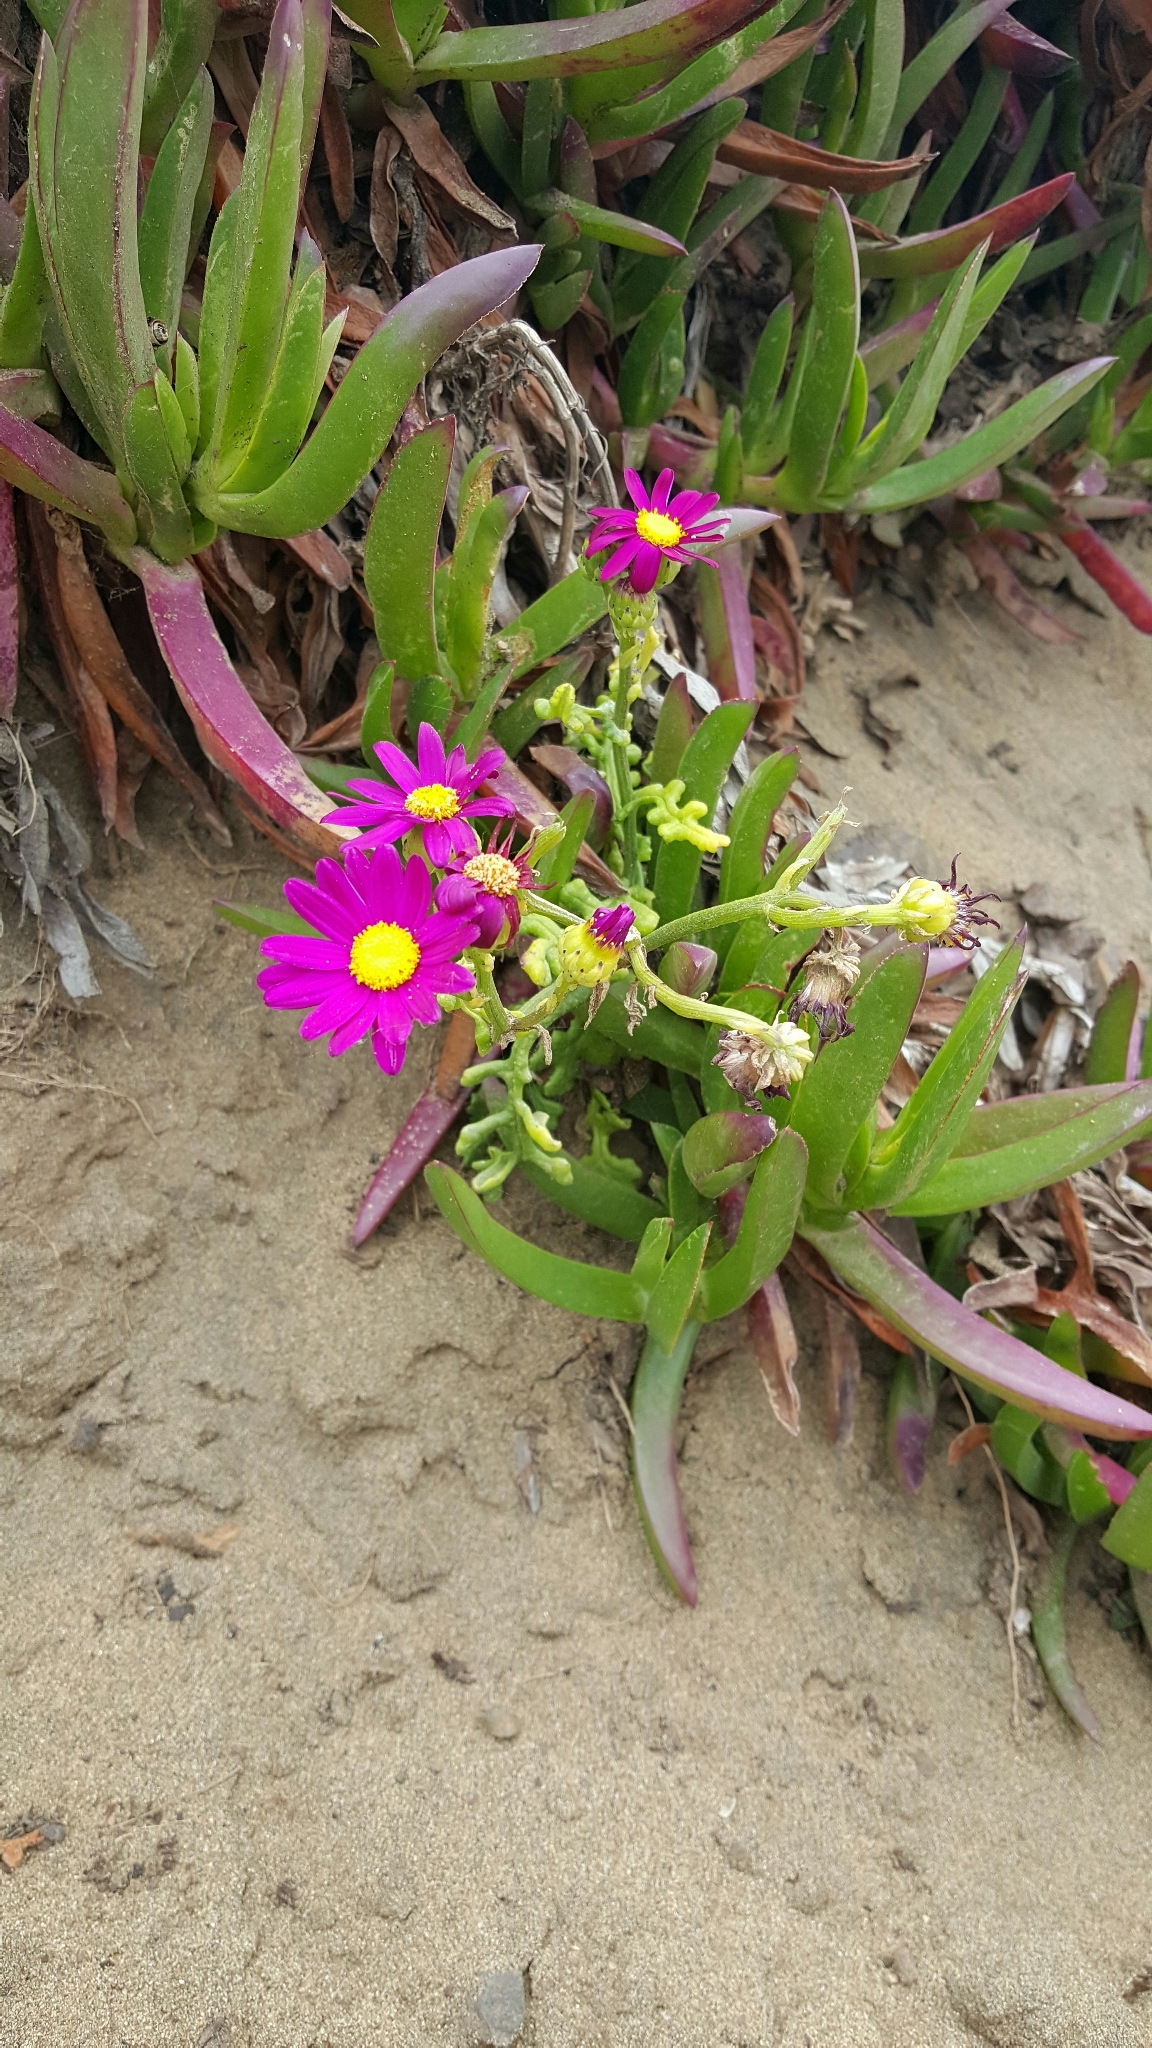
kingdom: Plantae
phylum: Tracheophyta
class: Magnoliopsida
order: Asterales
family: Asteraceae
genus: Senecio
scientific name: Senecio elegans
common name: Purple groundsel
